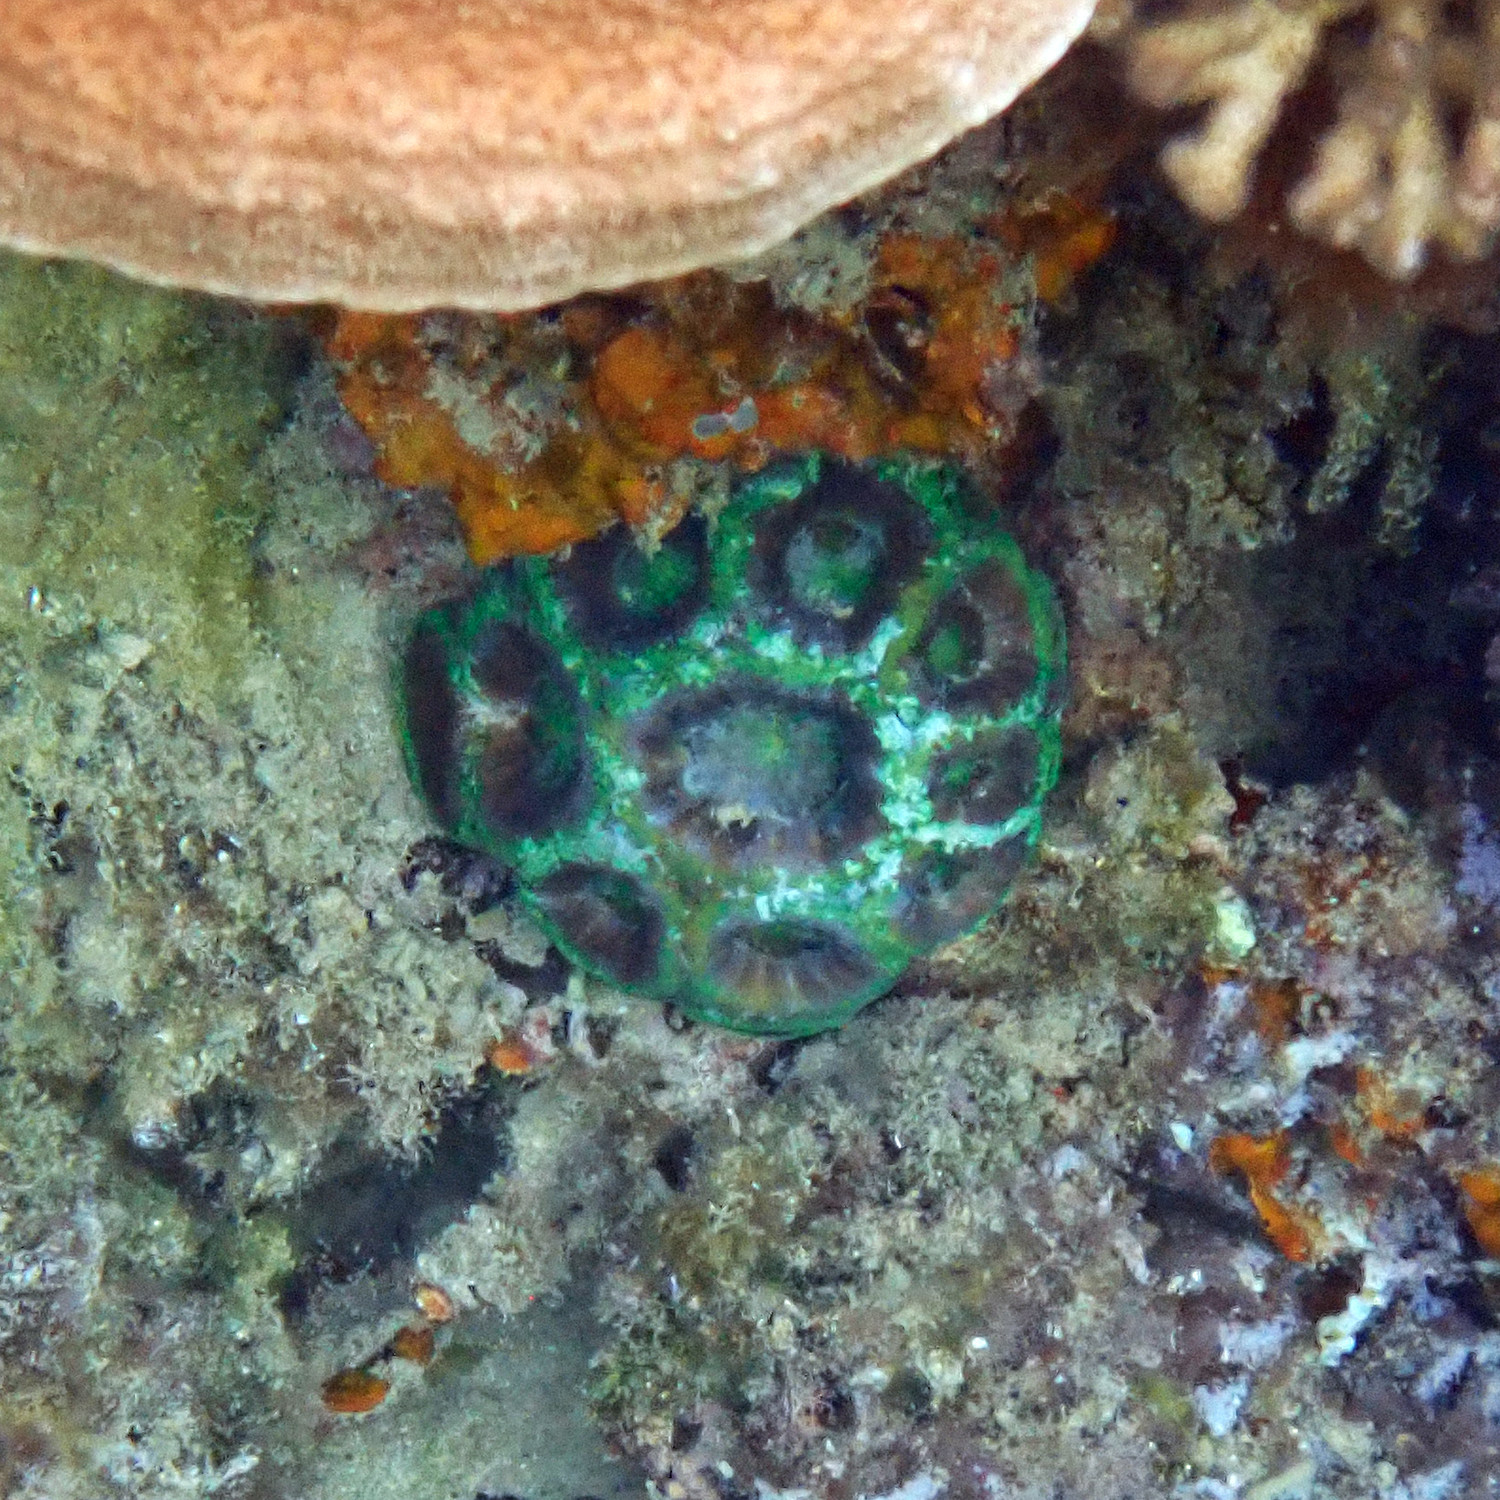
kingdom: Animalia
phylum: Cnidaria
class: Anthozoa
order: Scleractinia
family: Lobophylliidae
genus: Homophyllia
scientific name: Homophyllia bowerbanki
